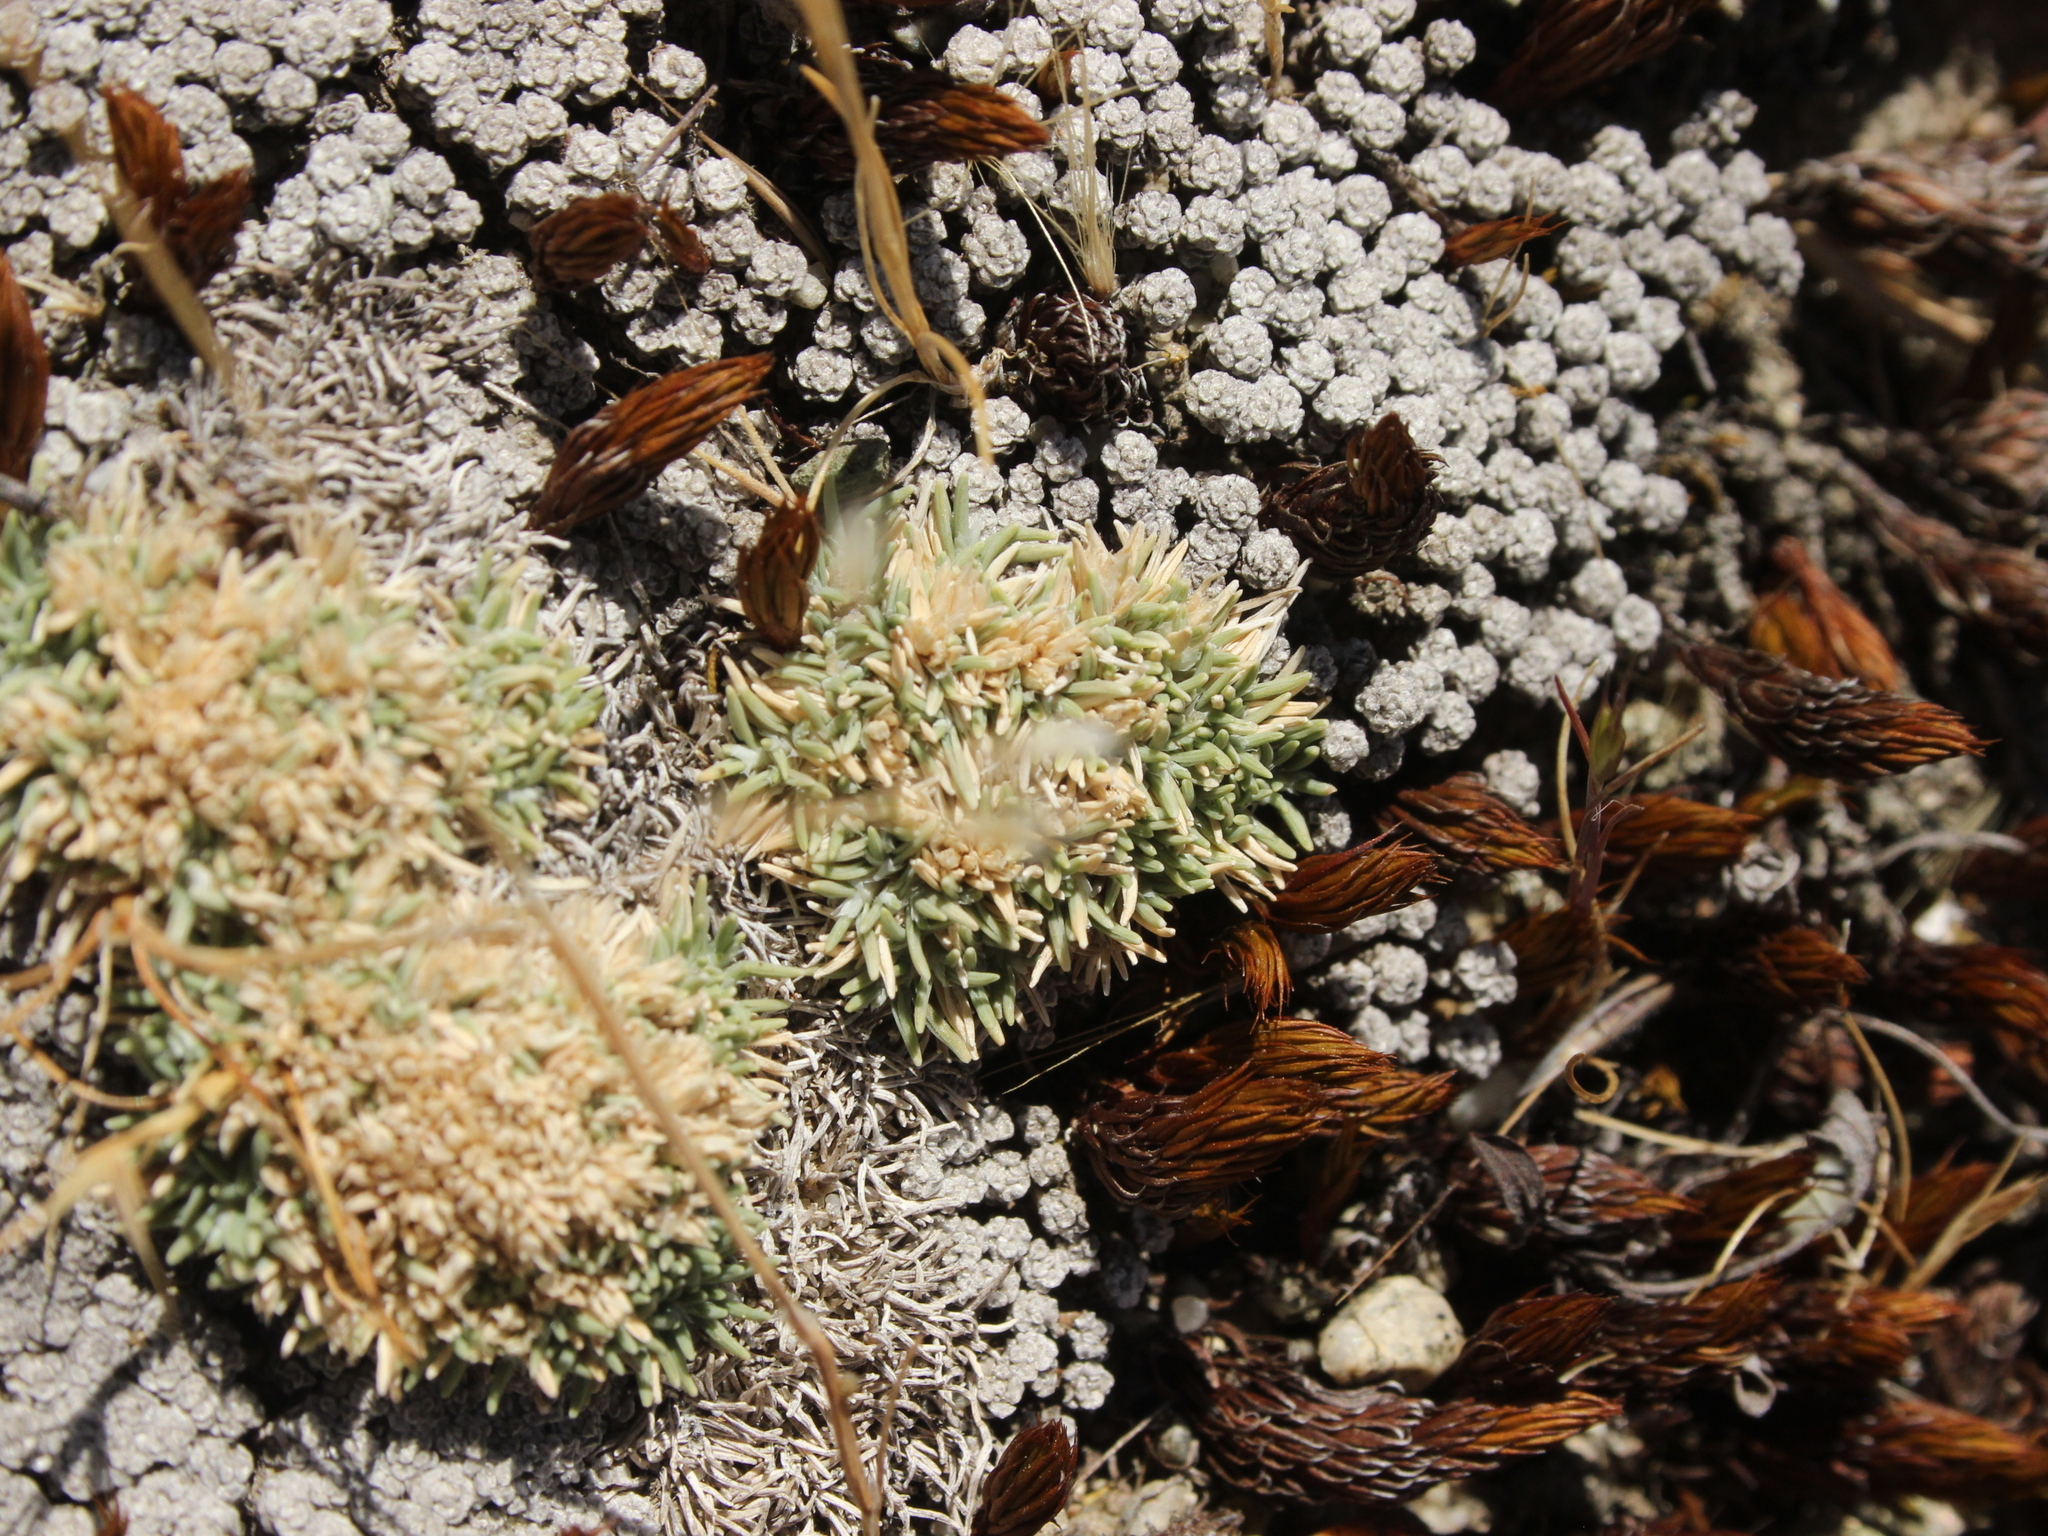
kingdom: Plantae
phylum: Tracheophyta
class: Liliopsida
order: Poales
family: Poaceae
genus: Agrostis
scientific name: Agrostis muscosa
